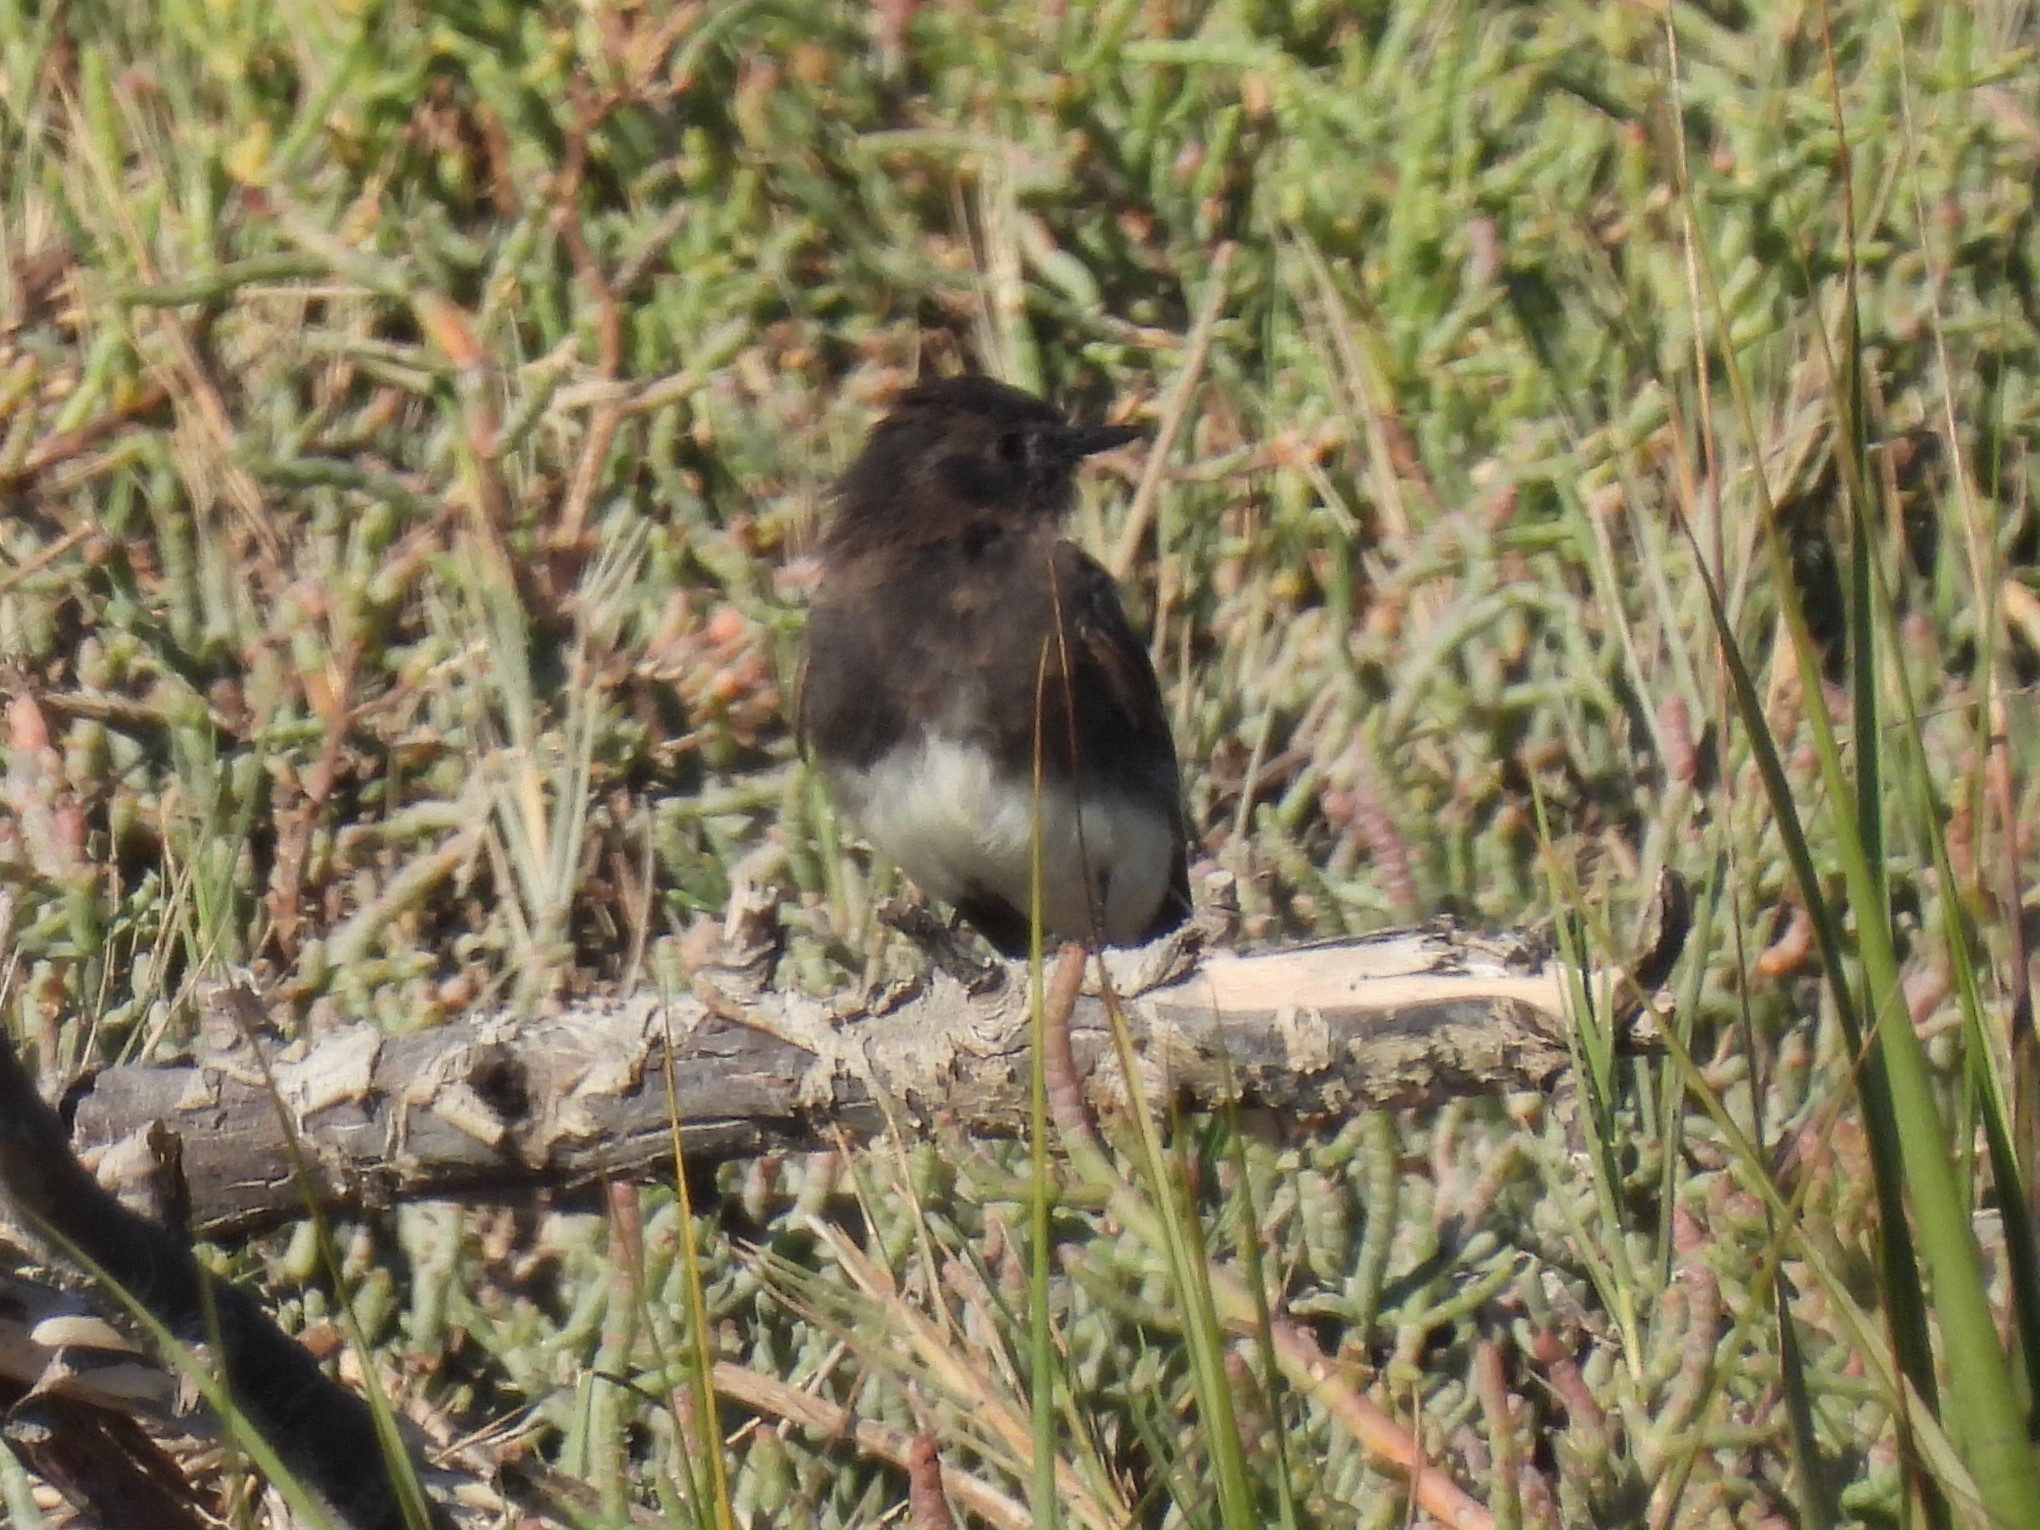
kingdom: Animalia
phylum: Chordata
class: Aves
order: Passeriformes
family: Tyrannidae
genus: Sayornis
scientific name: Sayornis nigricans
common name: Black phoebe
